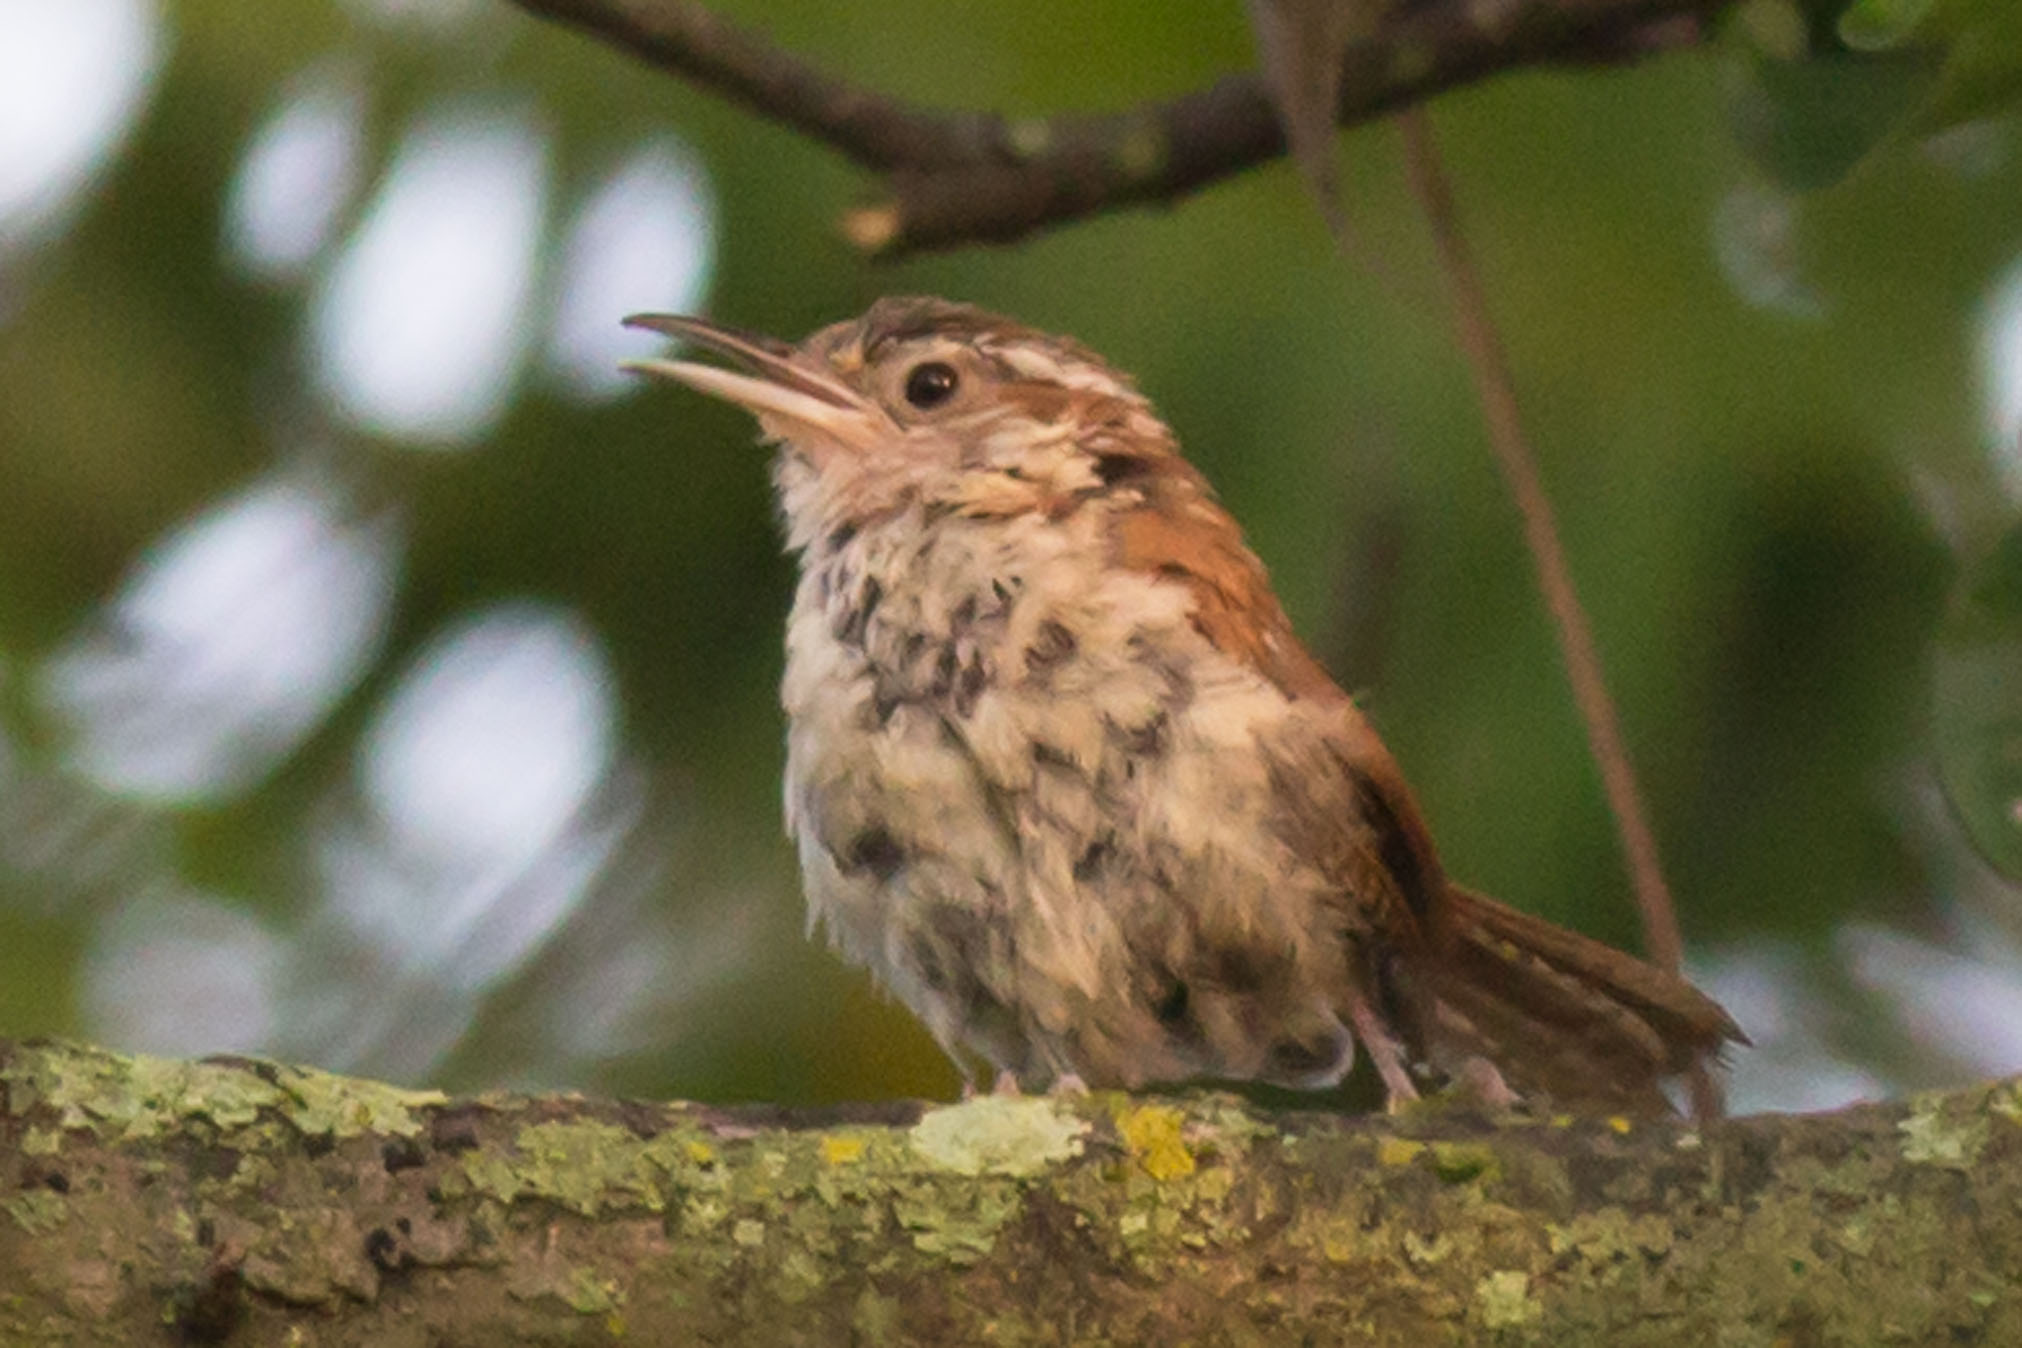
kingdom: Animalia
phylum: Chordata
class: Aves
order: Passeriformes
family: Troglodytidae
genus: Thryothorus
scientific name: Thryothorus ludovicianus
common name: Carolina wren
